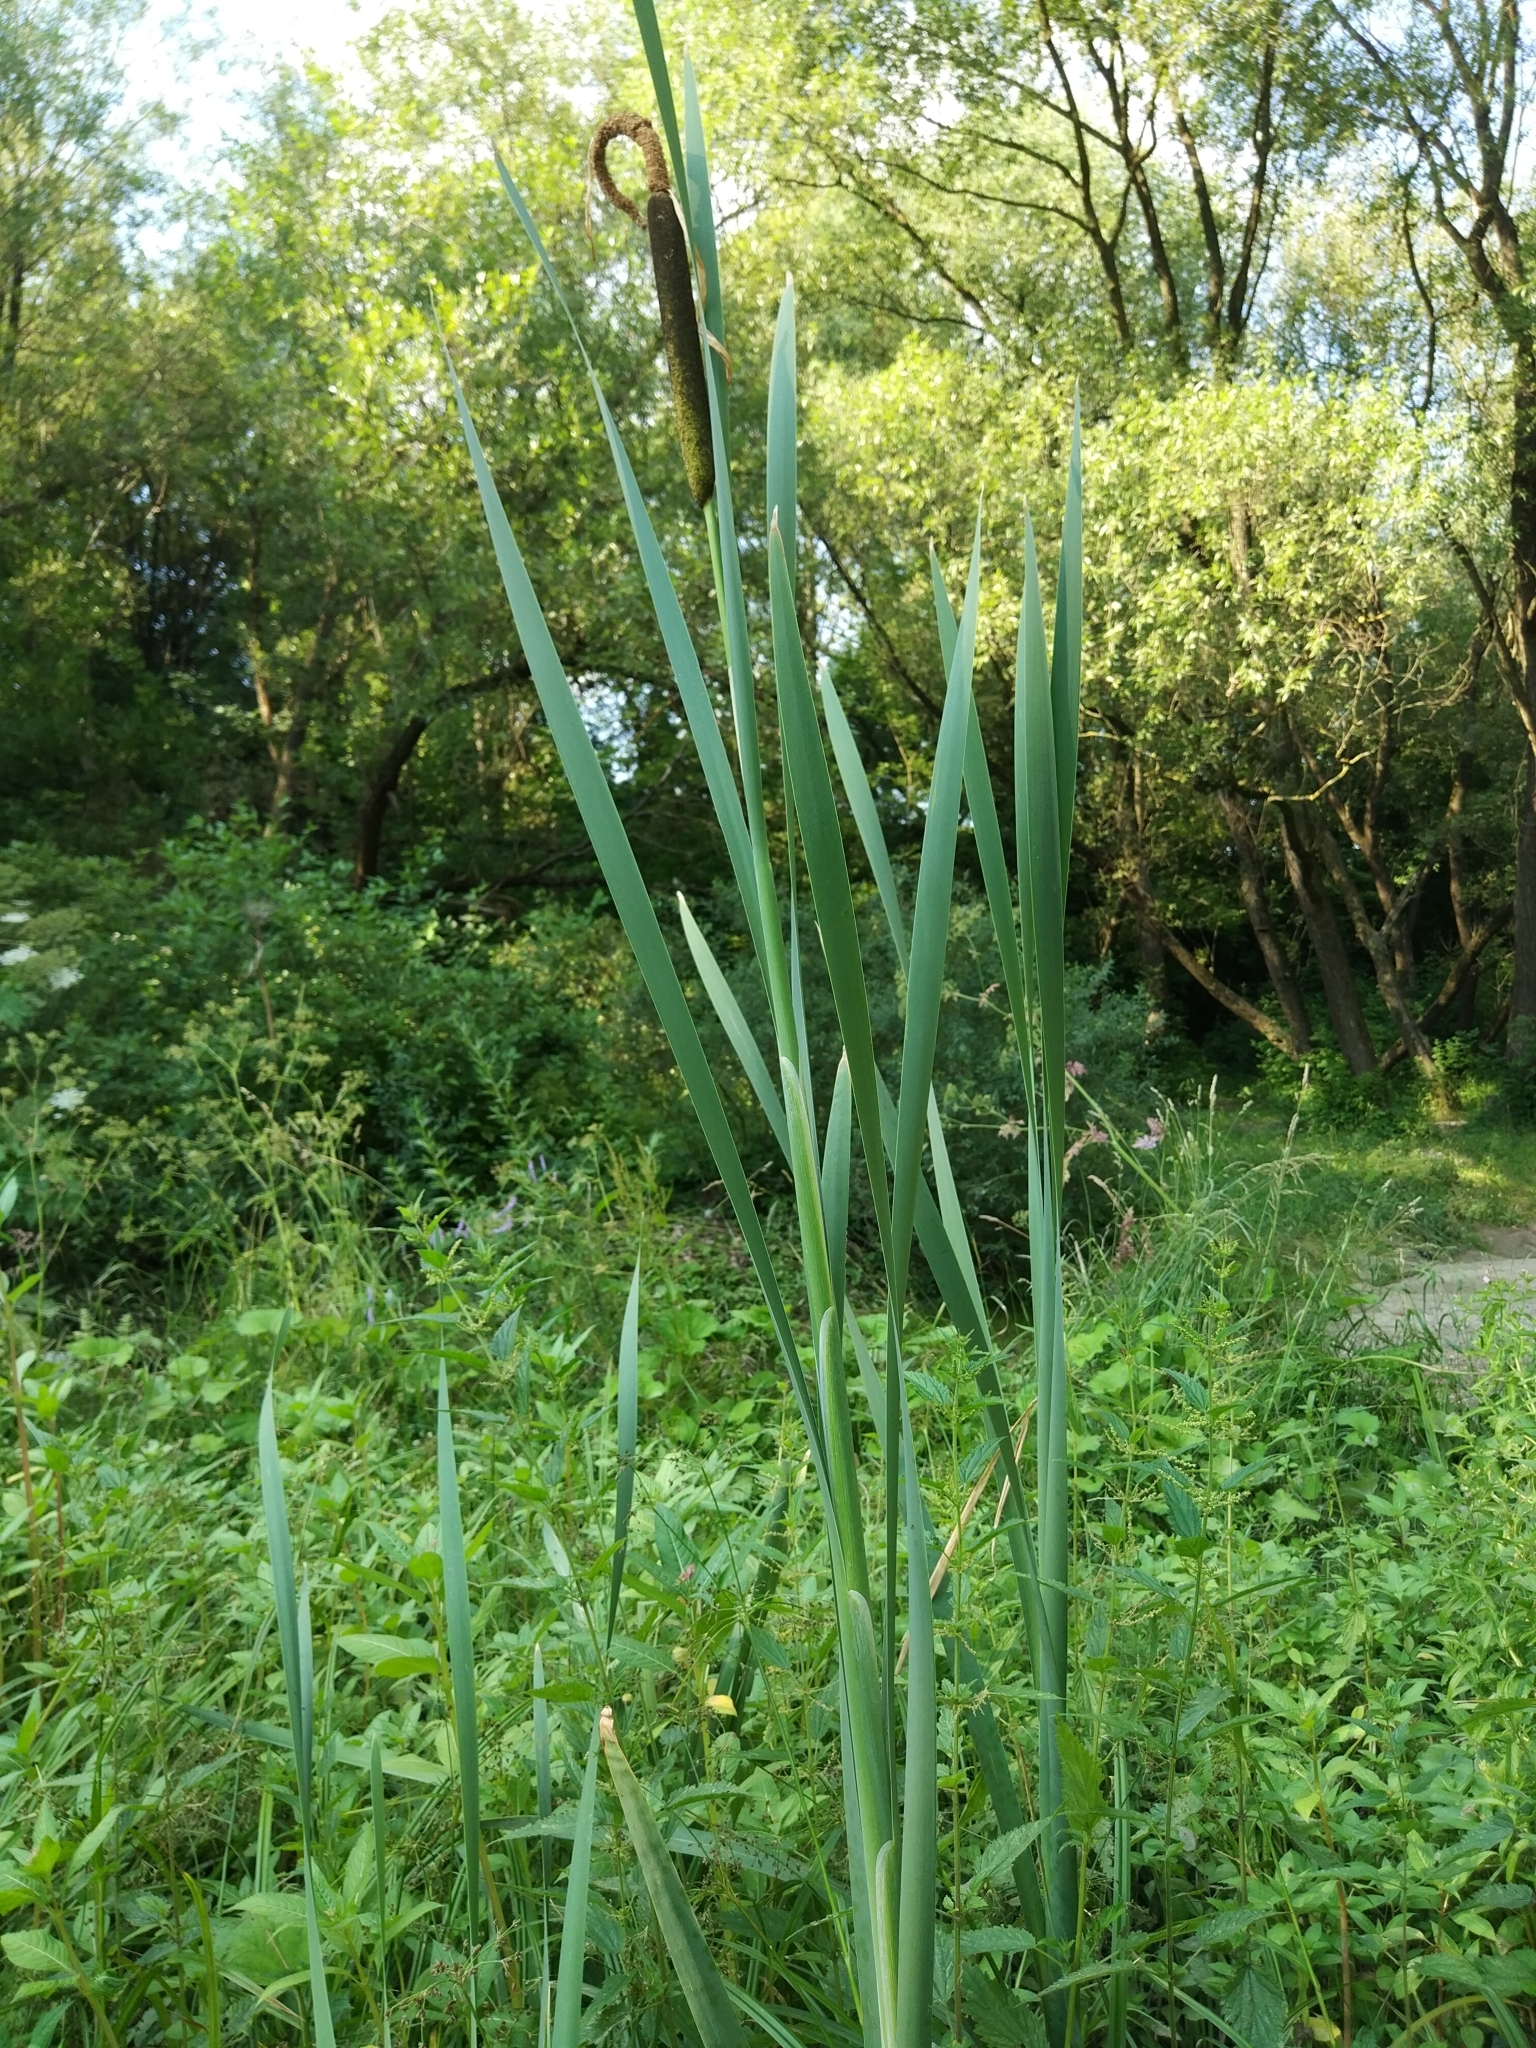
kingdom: Plantae
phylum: Tracheophyta
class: Liliopsida
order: Poales
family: Typhaceae
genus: Typha
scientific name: Typha latifolia
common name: Broadleaf cattail
